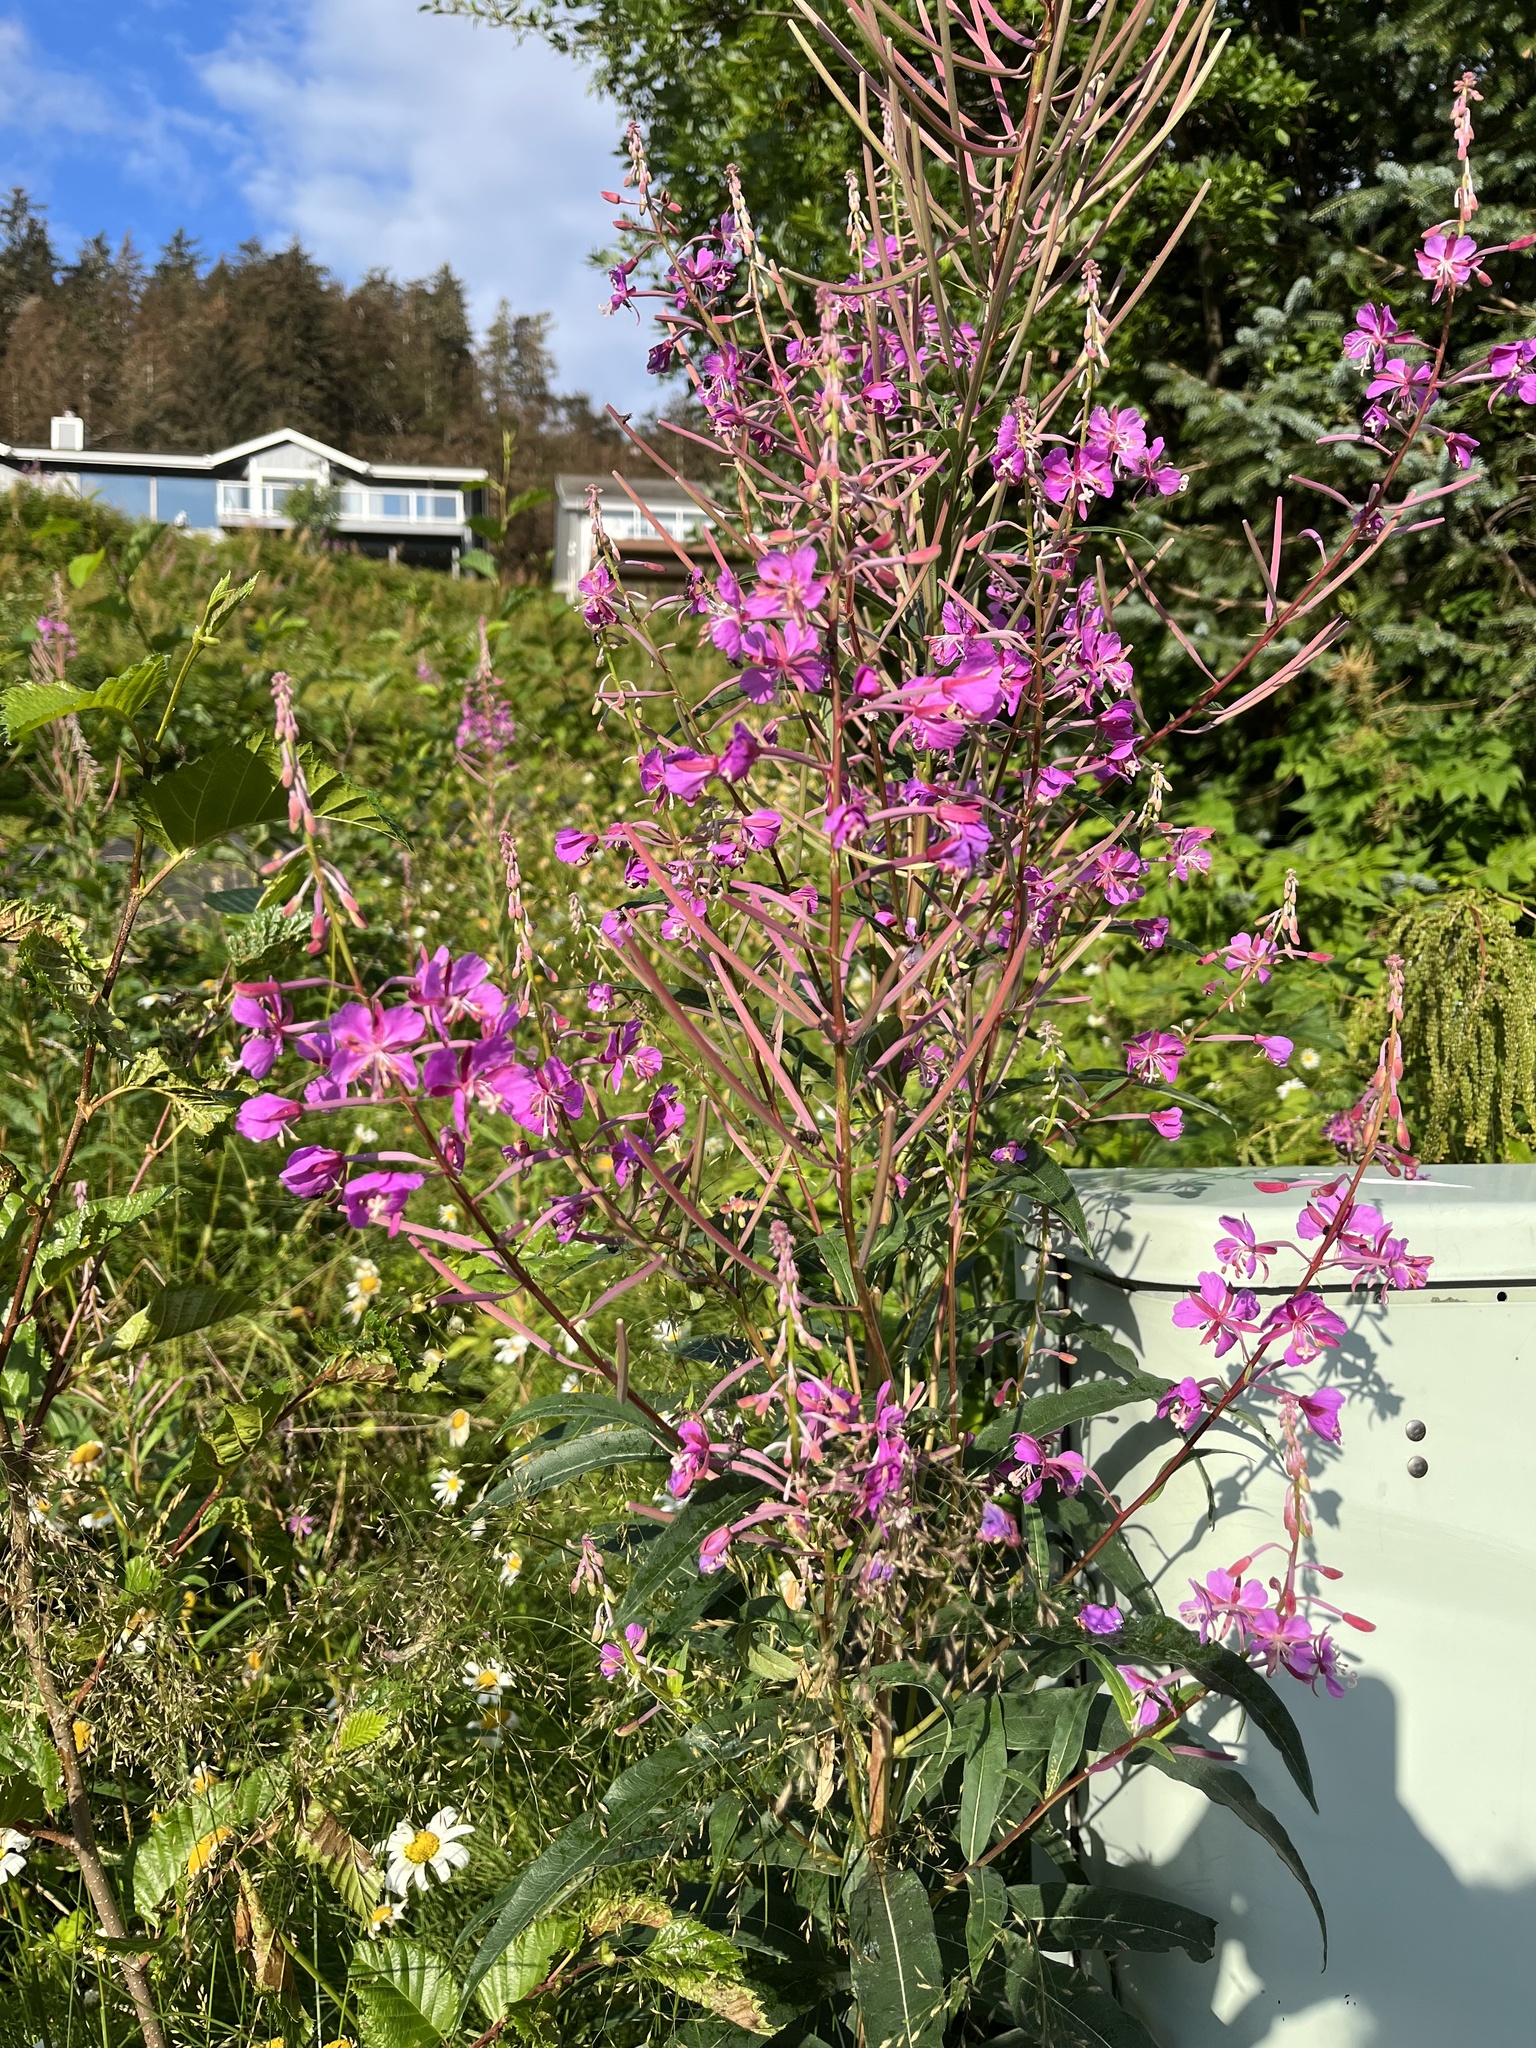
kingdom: Plantae
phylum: Tracheophyta
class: Magnoliopsida
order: Myrtales
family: Onagraceae
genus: Chamaenerion
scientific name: Chamaenerion angustifolium
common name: Fireweed
